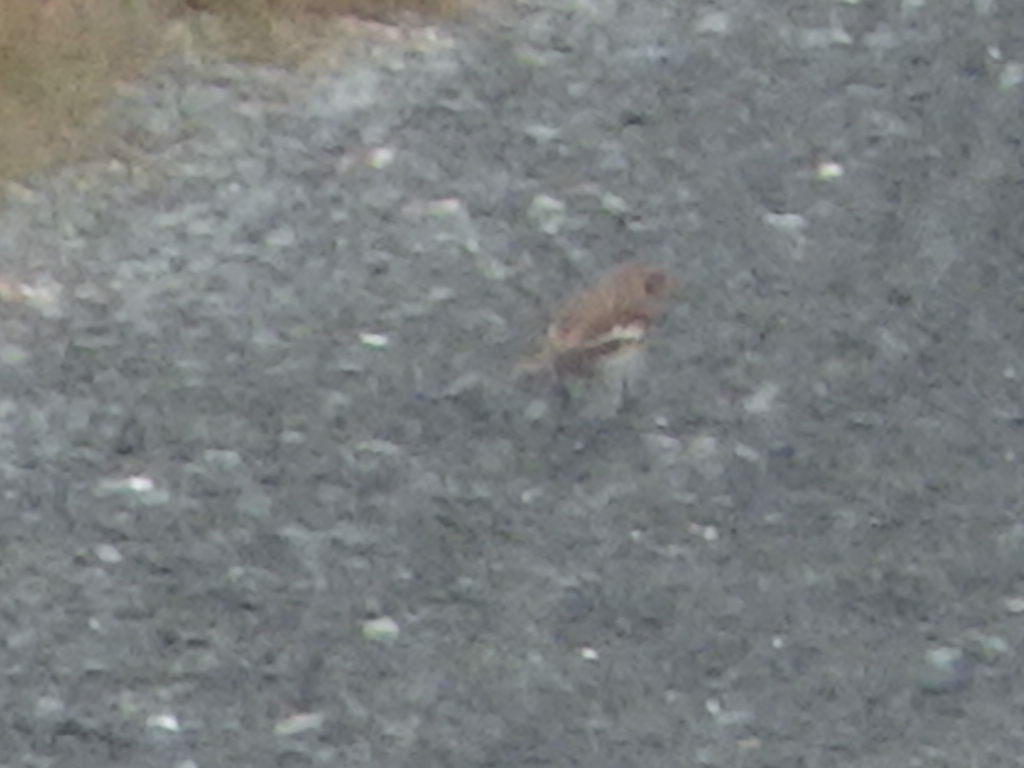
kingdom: Animalia
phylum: Chordata
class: Aves
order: Passeriformes
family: Calcariidae
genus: Plectrophenax
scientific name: Plectrophenax nivalis
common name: Snow bunting
